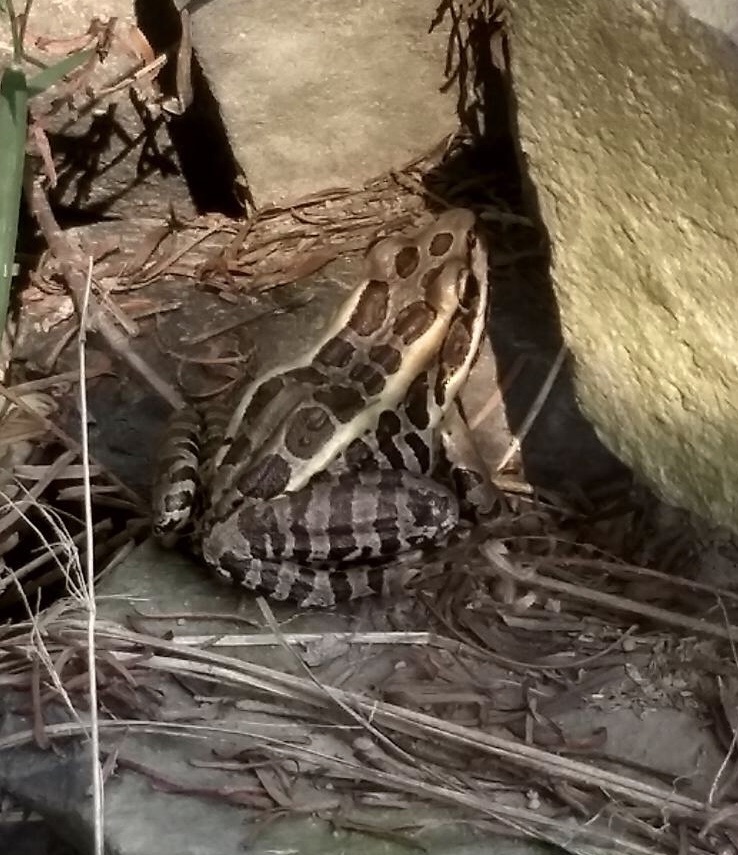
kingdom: Animalia
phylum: Chordata
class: Amphibia
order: Anura
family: Ranidae
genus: Lithobates
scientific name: Lithobates palustris
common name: Pickerel frog
